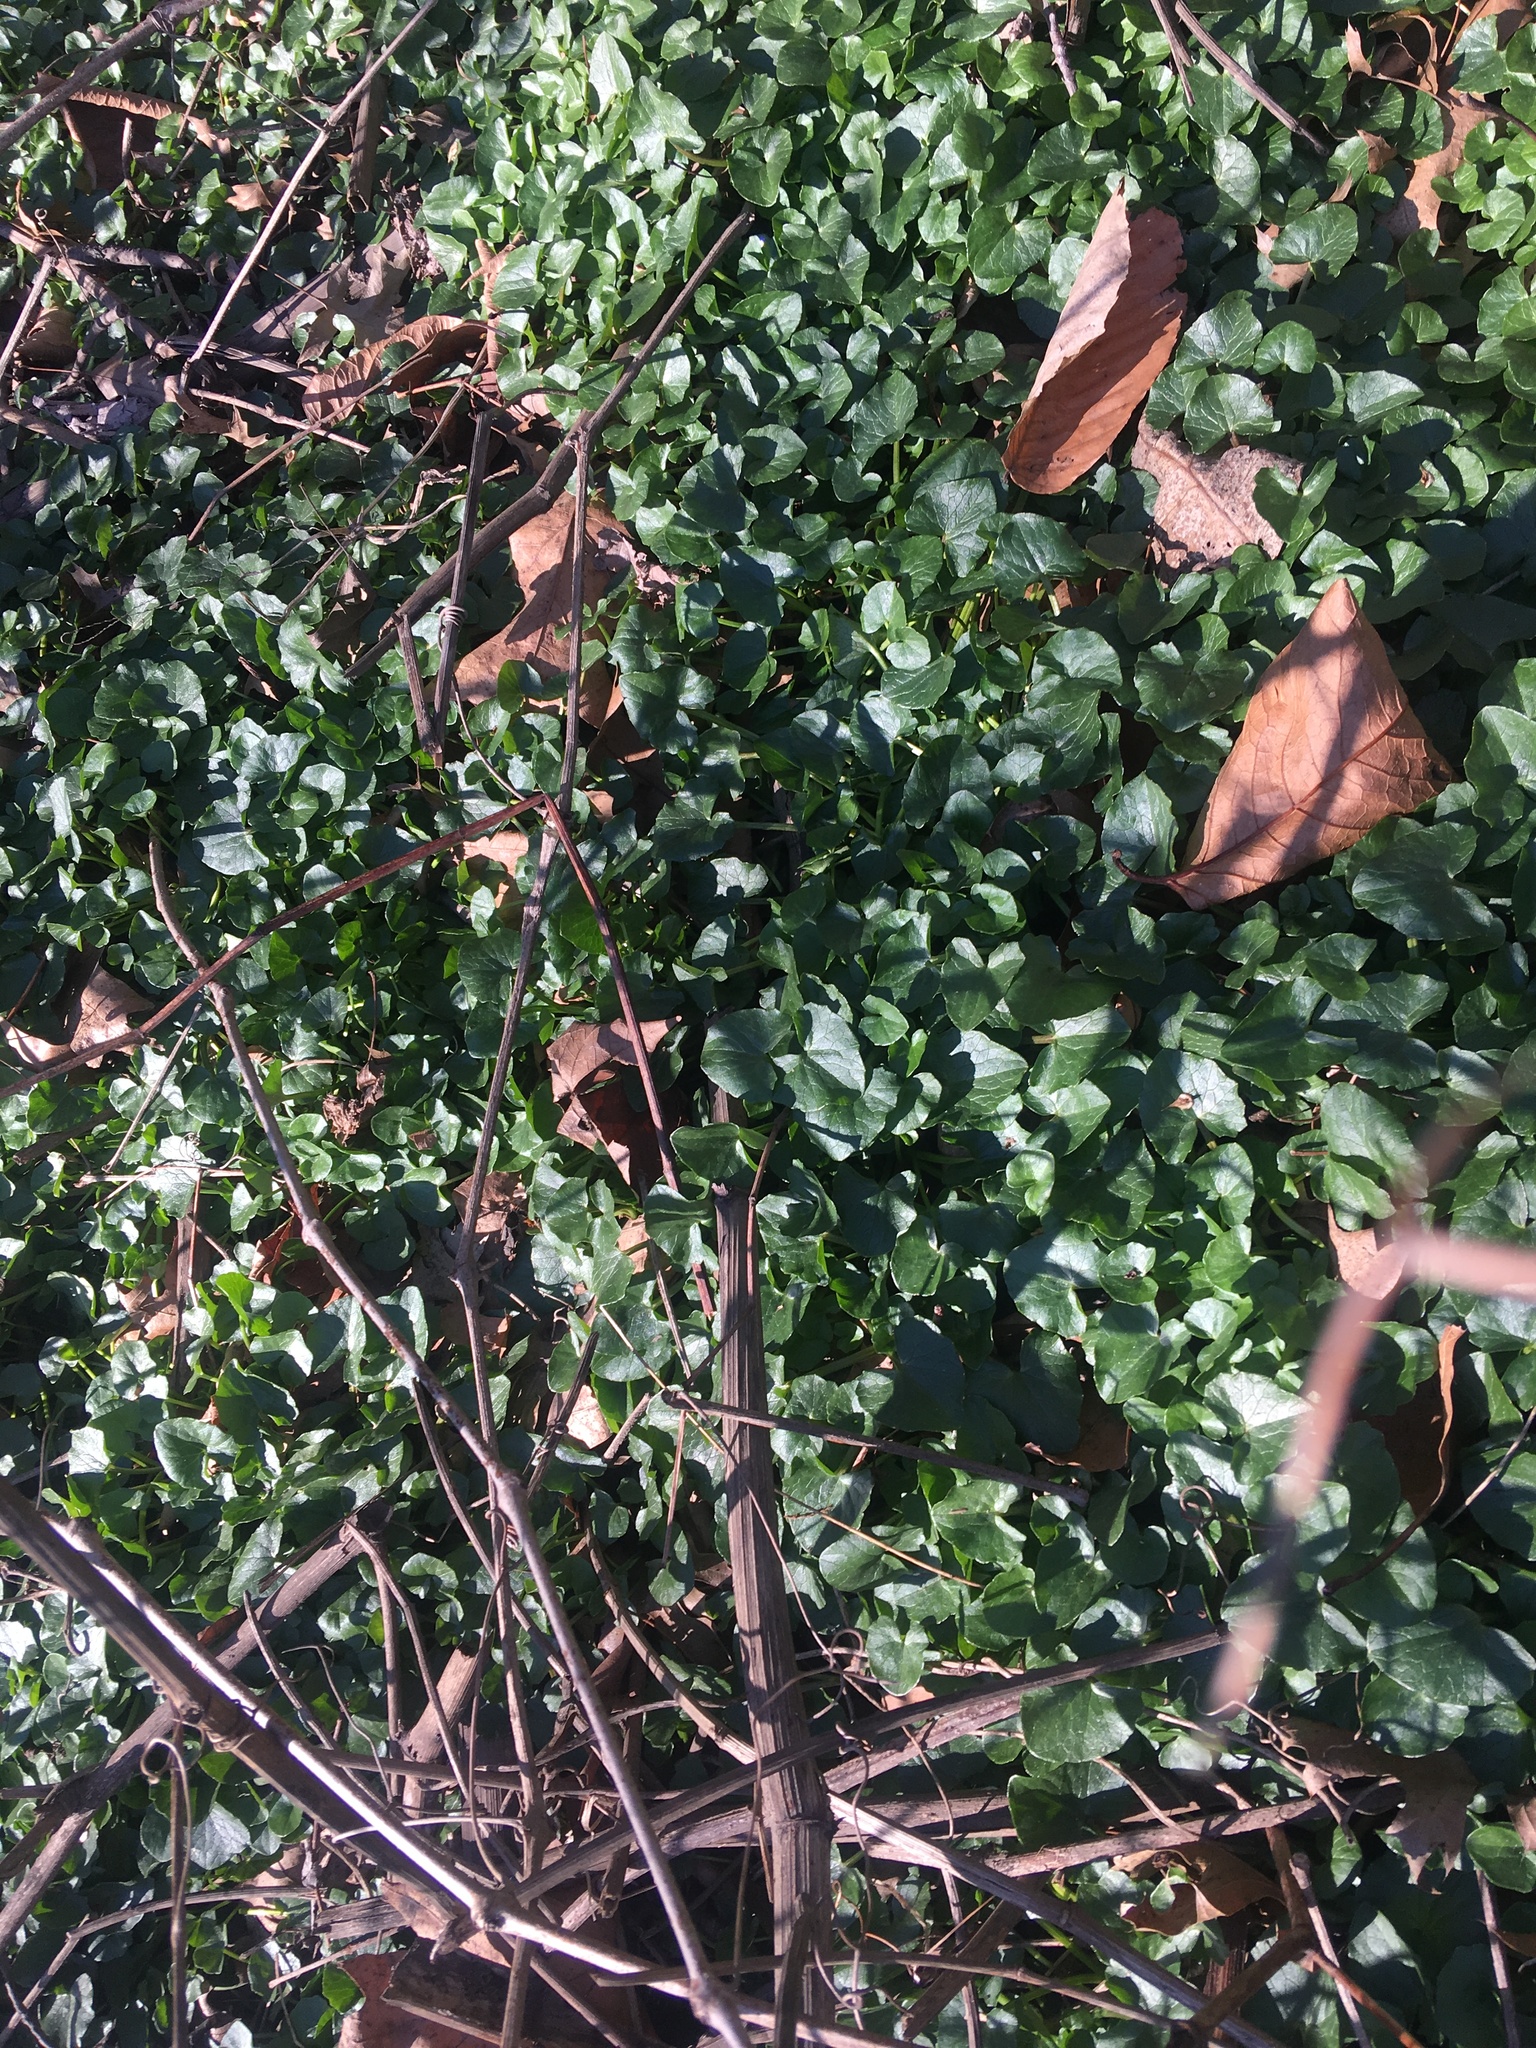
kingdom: Plantae
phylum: Tracheophyta
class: Magnoliopsida
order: Ranunculales
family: Ranunculaceae
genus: Ficaria
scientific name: Ficaria verna
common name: Lesser celandine
